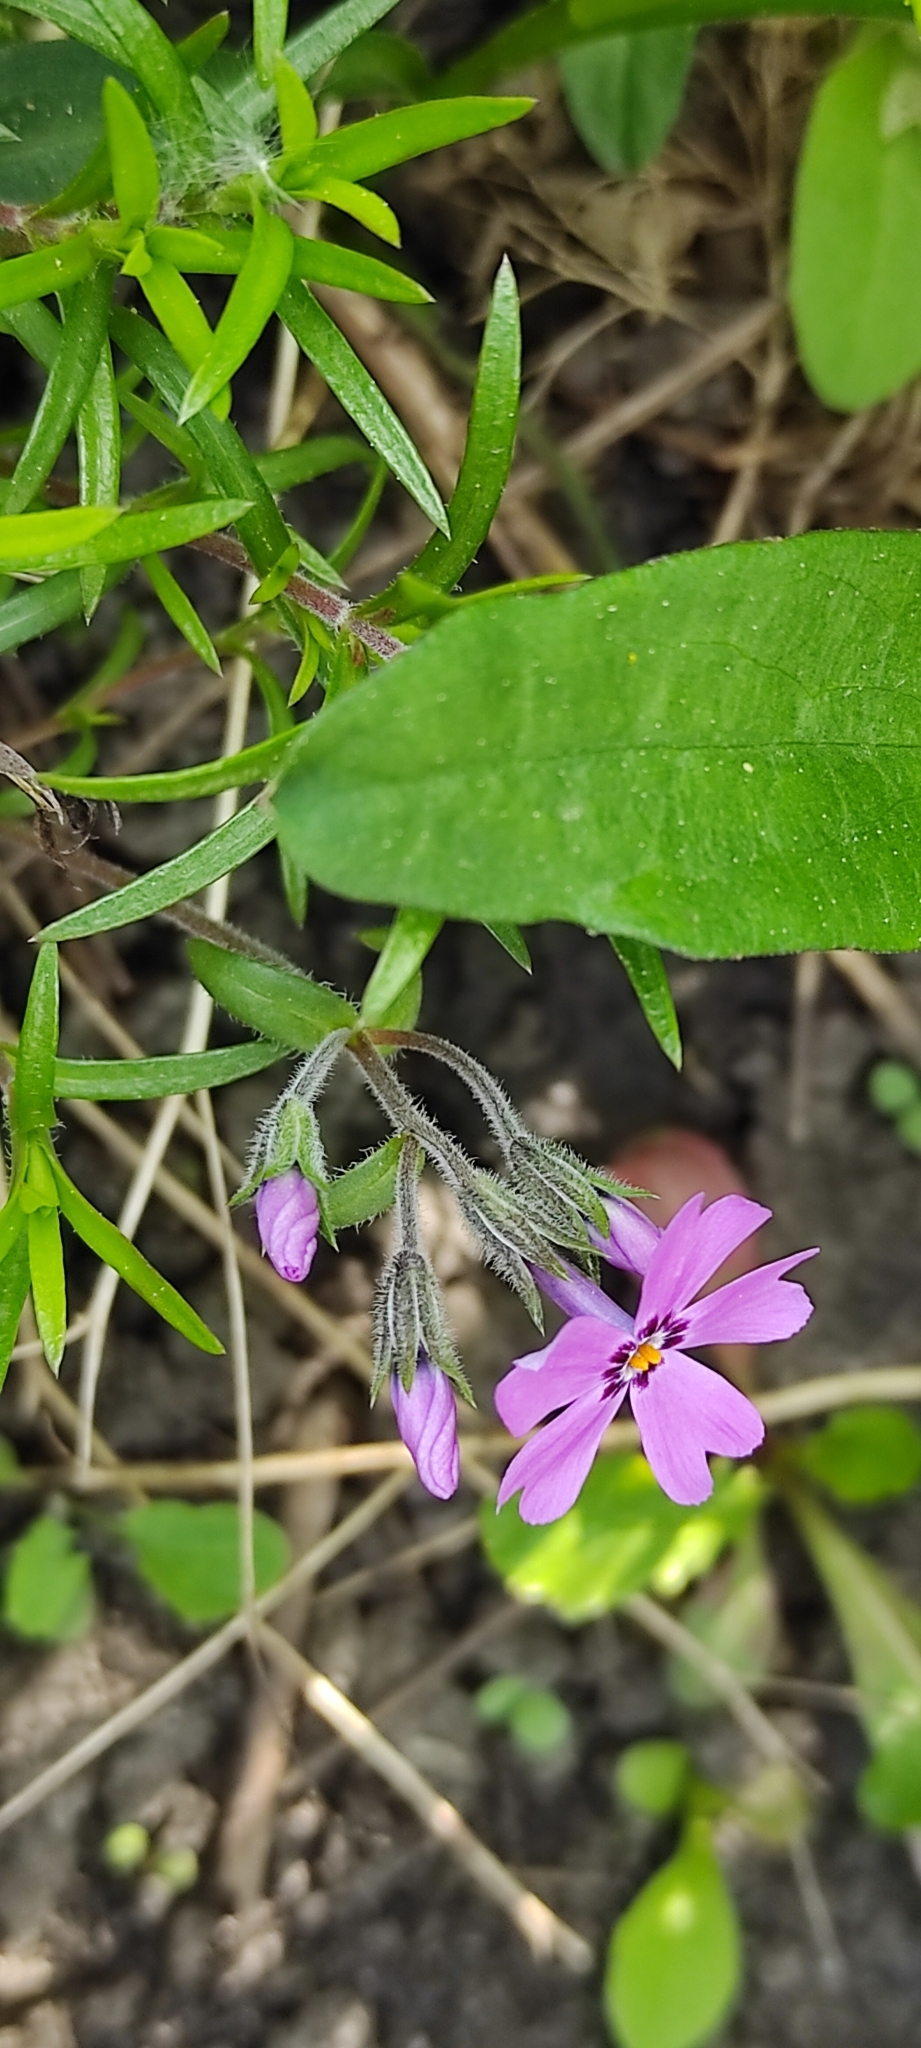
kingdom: Plantae
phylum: Tracheophyta
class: Magnoliopsida
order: Ericales
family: Polemoniaceae
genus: Phlox
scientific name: Phlox subulata
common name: Moss phlox
